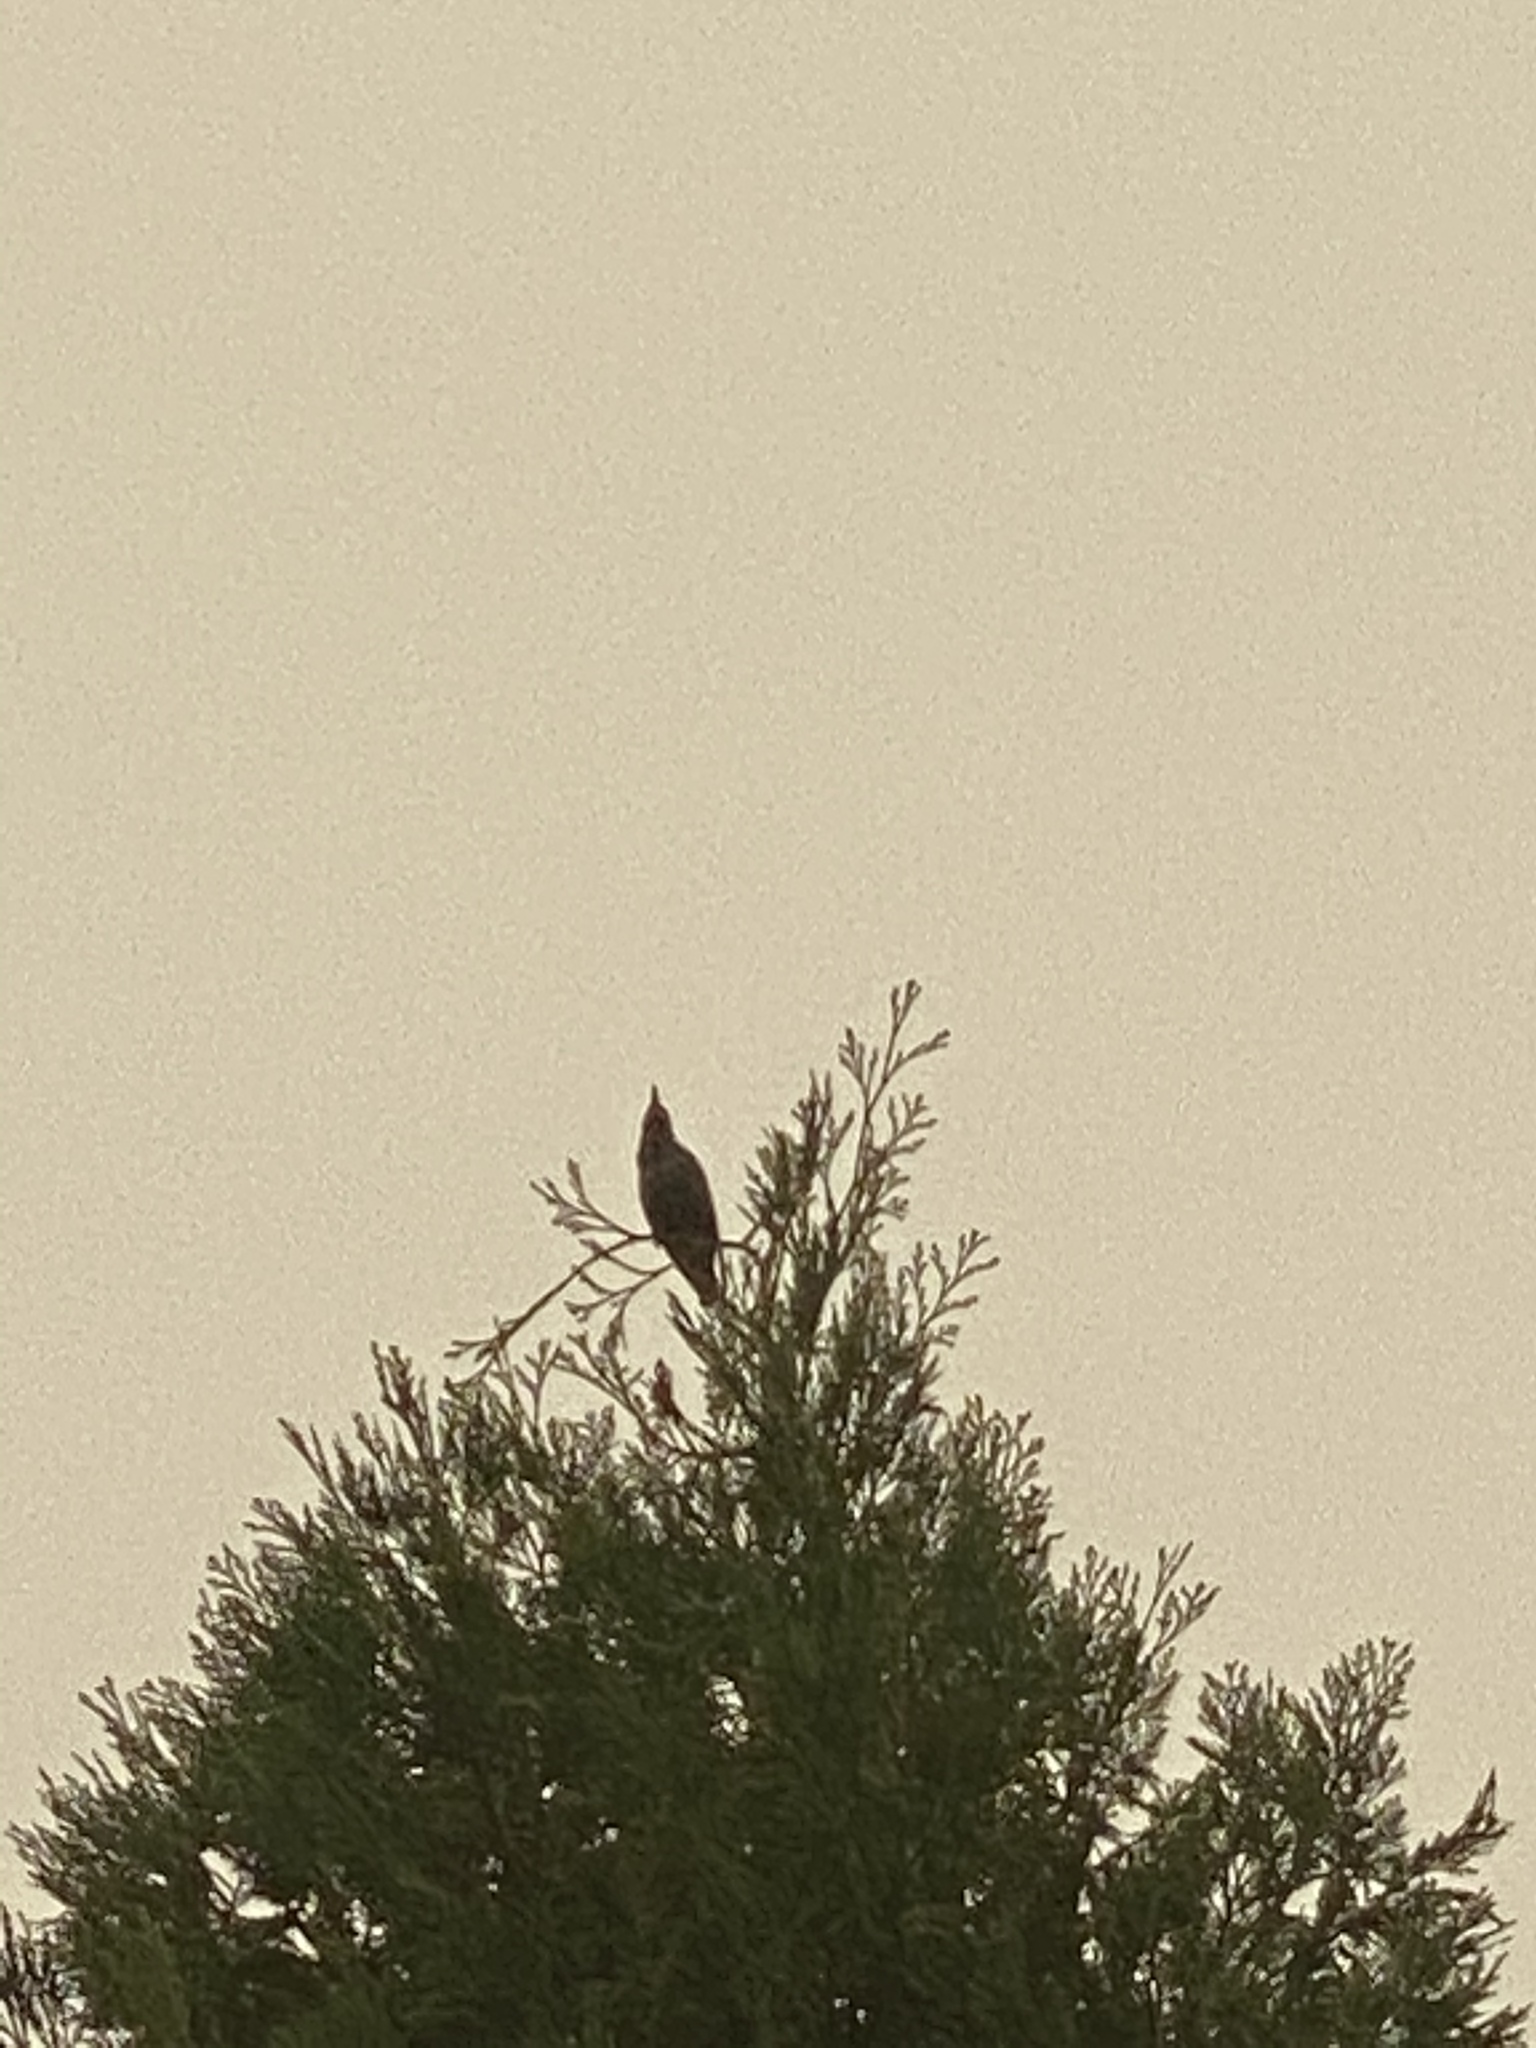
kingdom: Animalia
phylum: Chordata
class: Aves
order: Passeriformes
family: Sturnidae
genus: Sturnus
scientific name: Sturnus vulgaris
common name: Common starling
